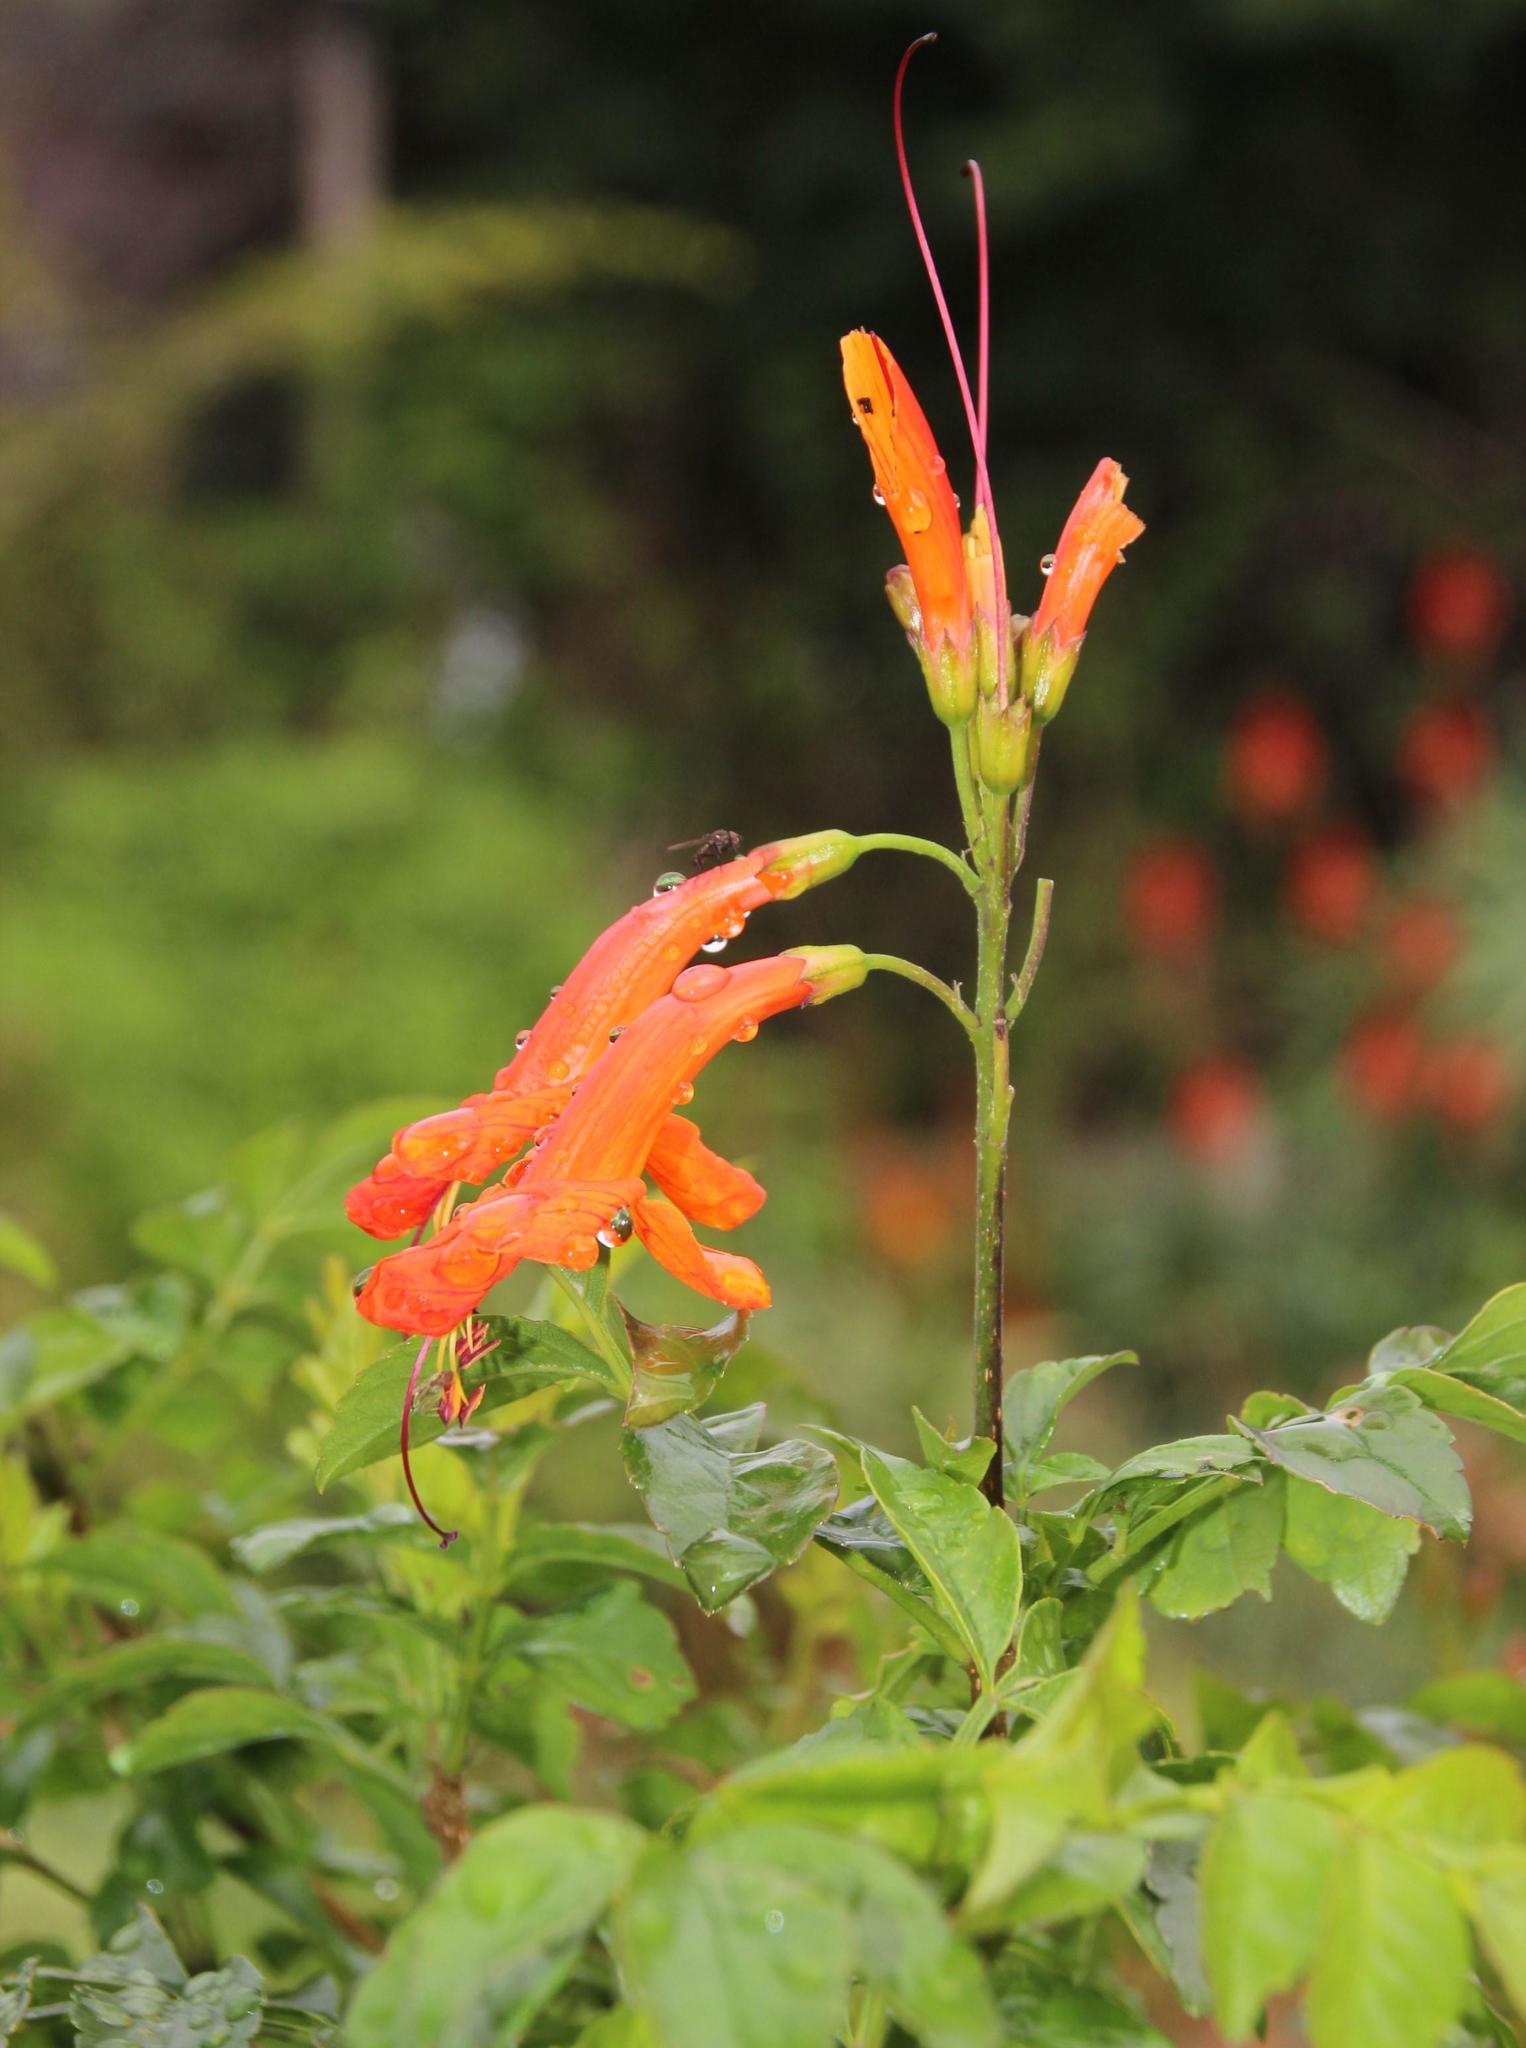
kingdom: Plantae
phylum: Tracheophyta
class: Magnoliopsida
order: Lamiales
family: Bignoniaceae
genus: Tecomaria
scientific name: Tecomaria capensis
